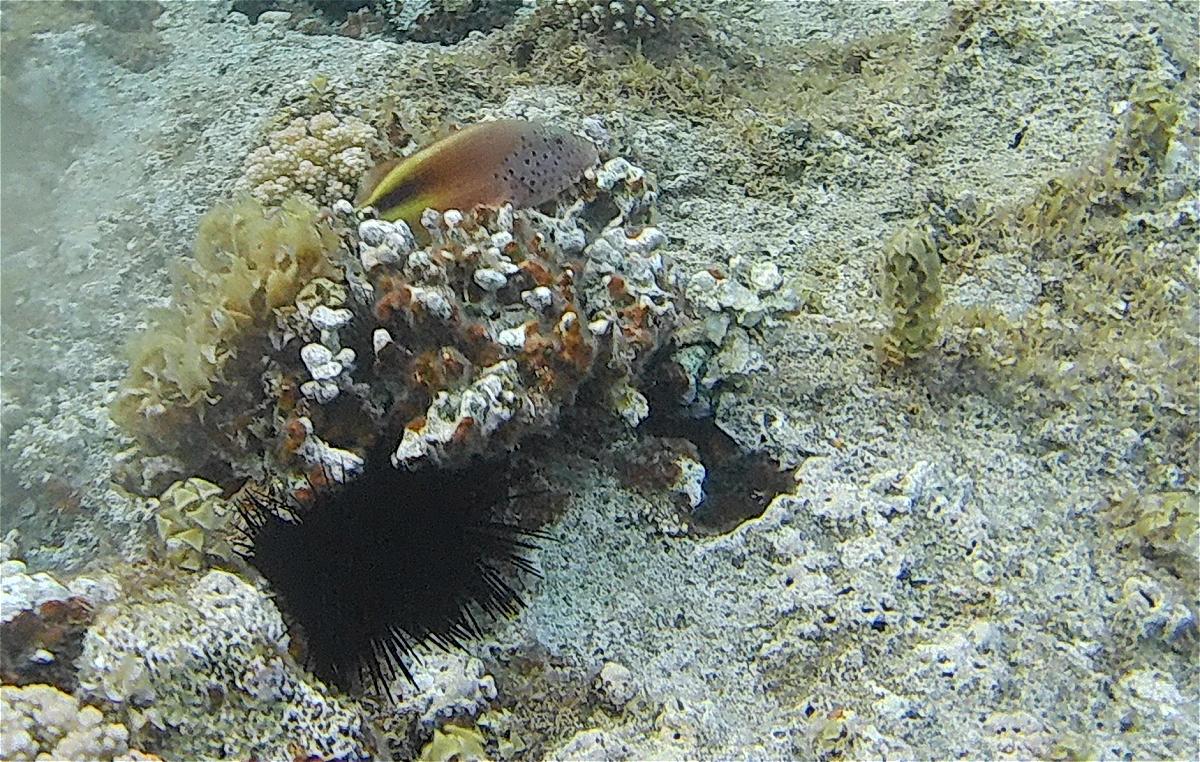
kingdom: Animalia
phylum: Chordata
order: Perciformes
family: Cirrhitidae
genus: Paracirrhites
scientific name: Paracirrhites forsteri
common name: Freckled hawkfish
